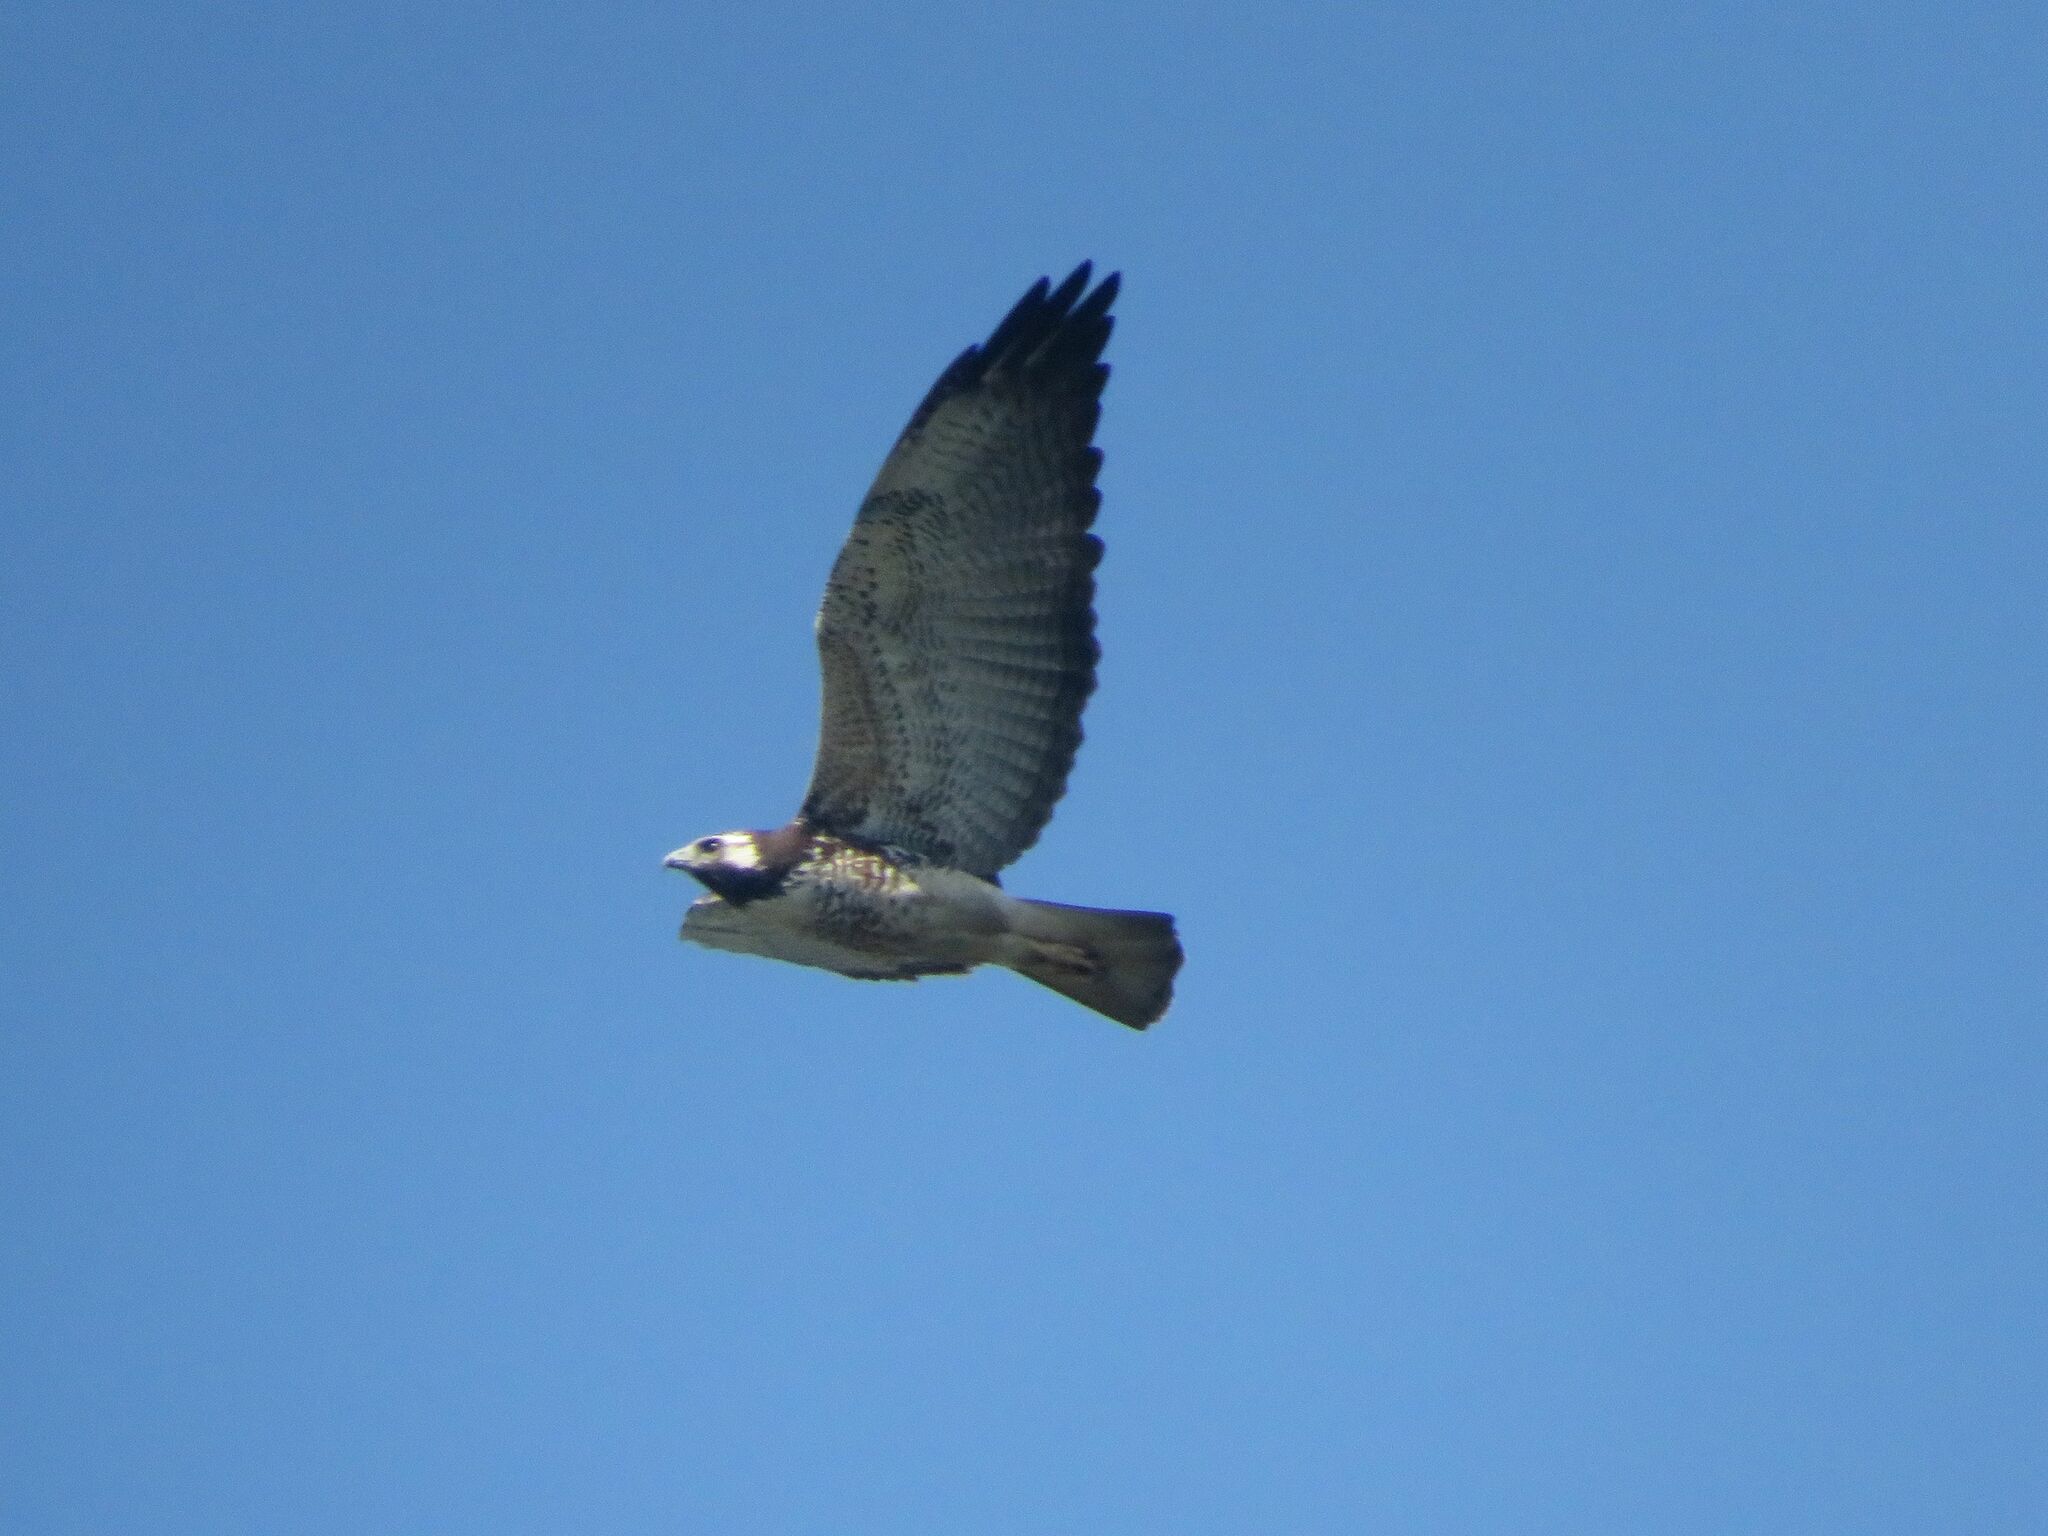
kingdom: Animalia
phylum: Chordata
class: Aves
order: Accipitriformes
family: Accipitridae
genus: Buteo
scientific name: Buteo albicaudatus
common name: White-tailed hawk
